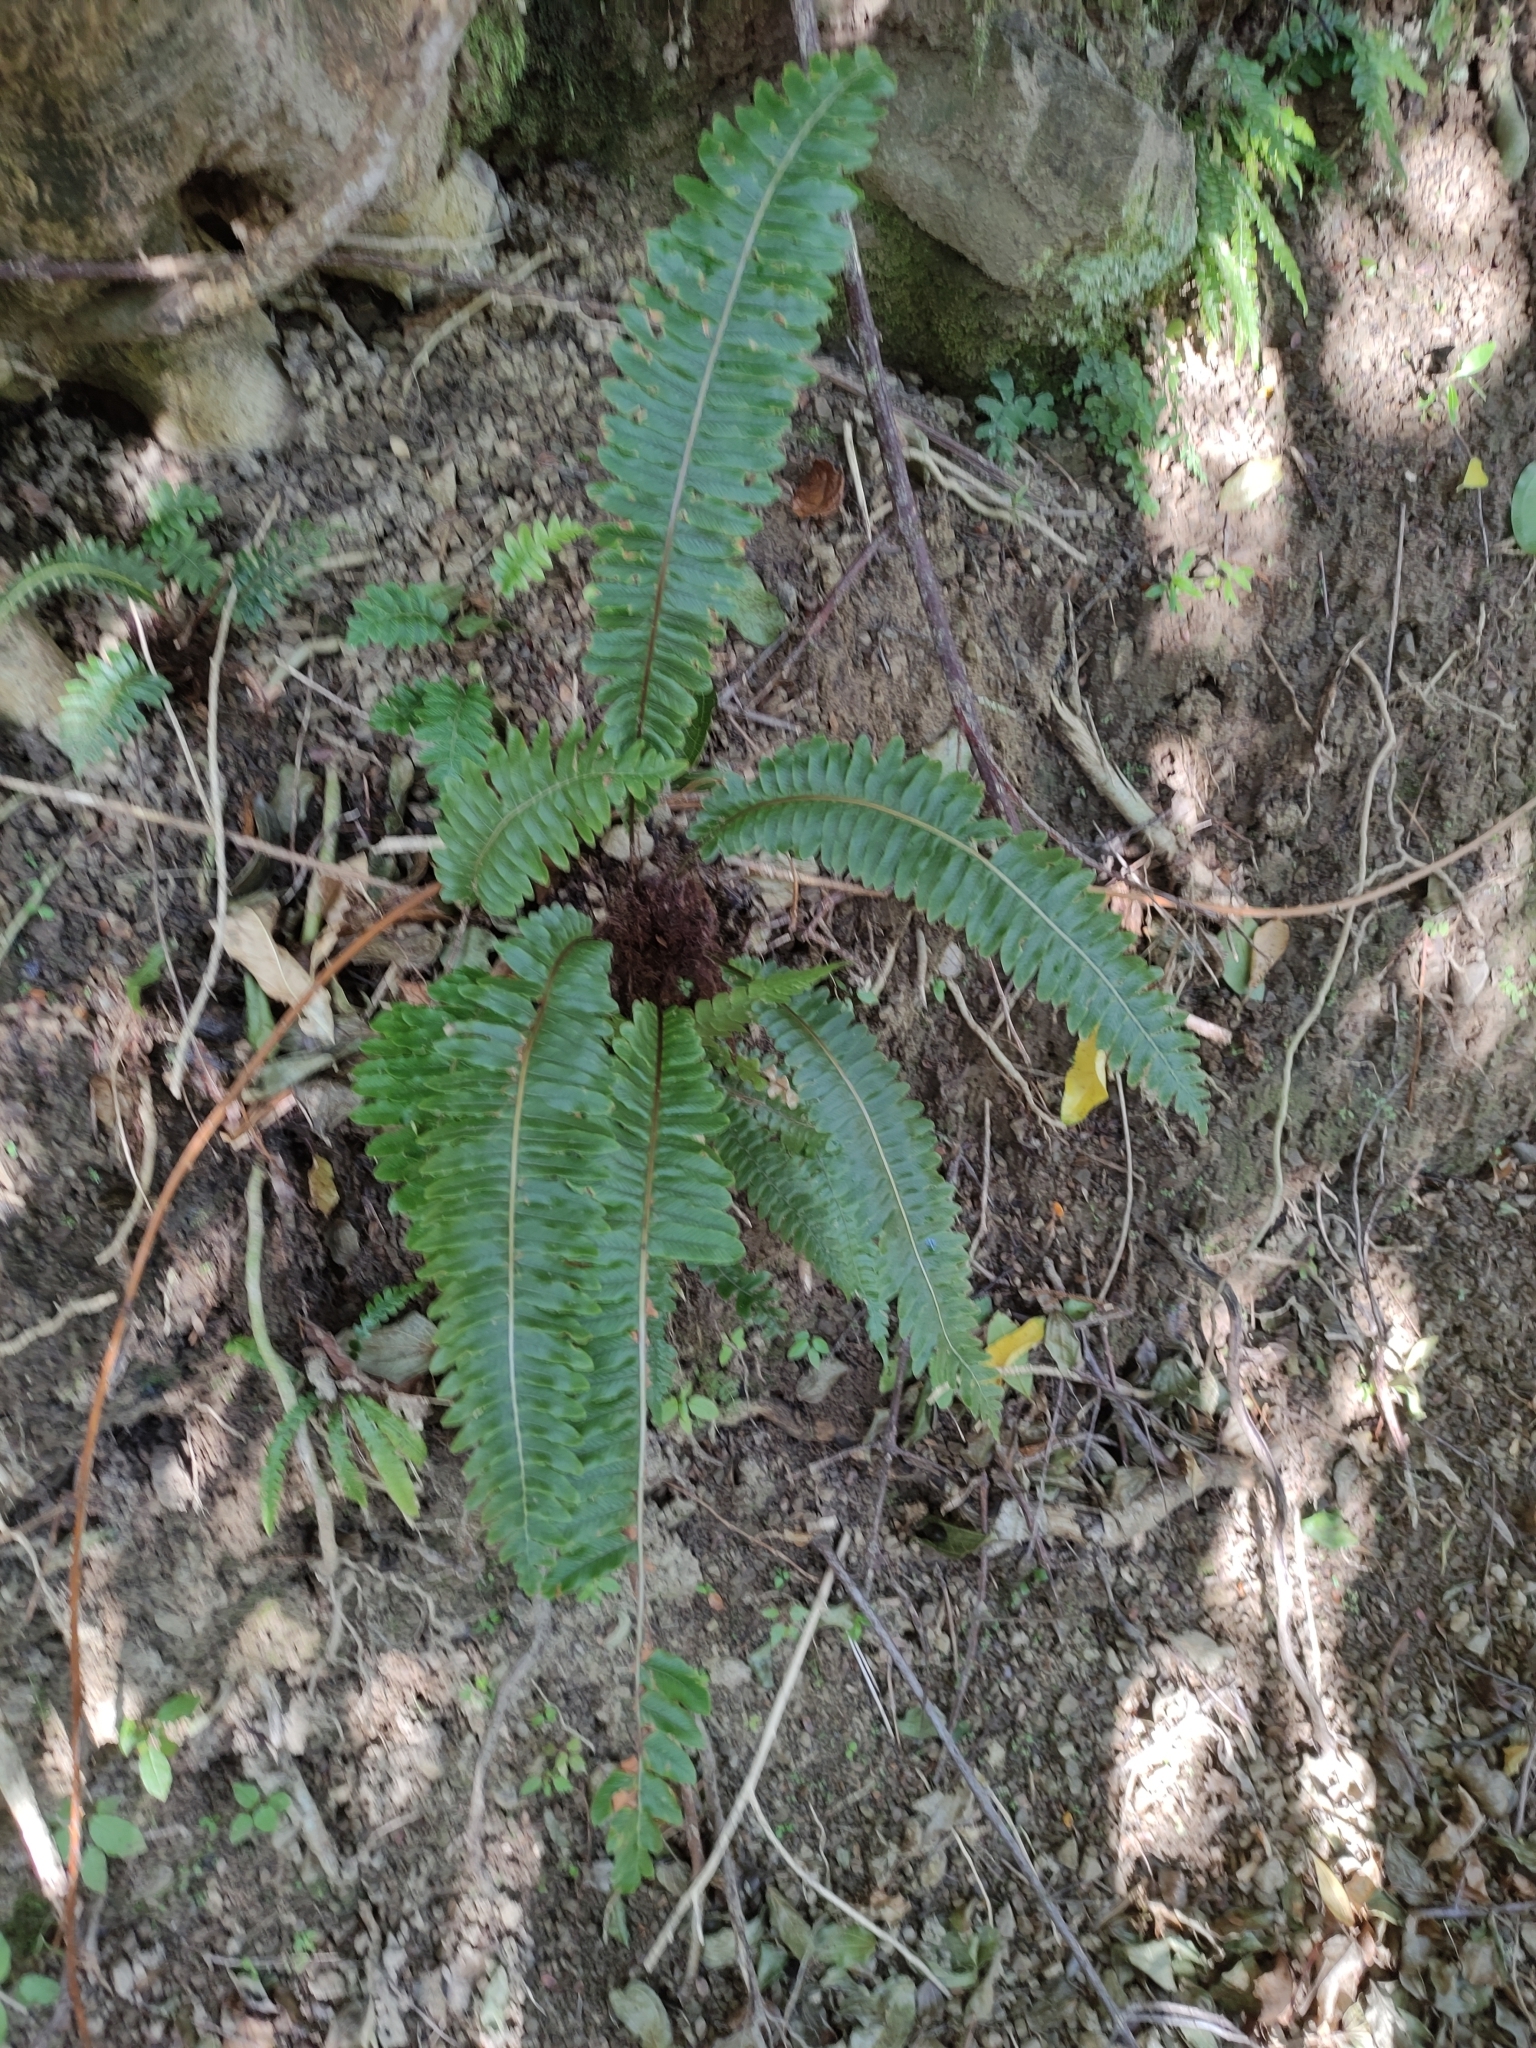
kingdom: Plantae
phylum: Tracheophyta
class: Polypodiopsida
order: Polypodiales
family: Blechnaceae
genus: Lomaria
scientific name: Lomaria discolor
